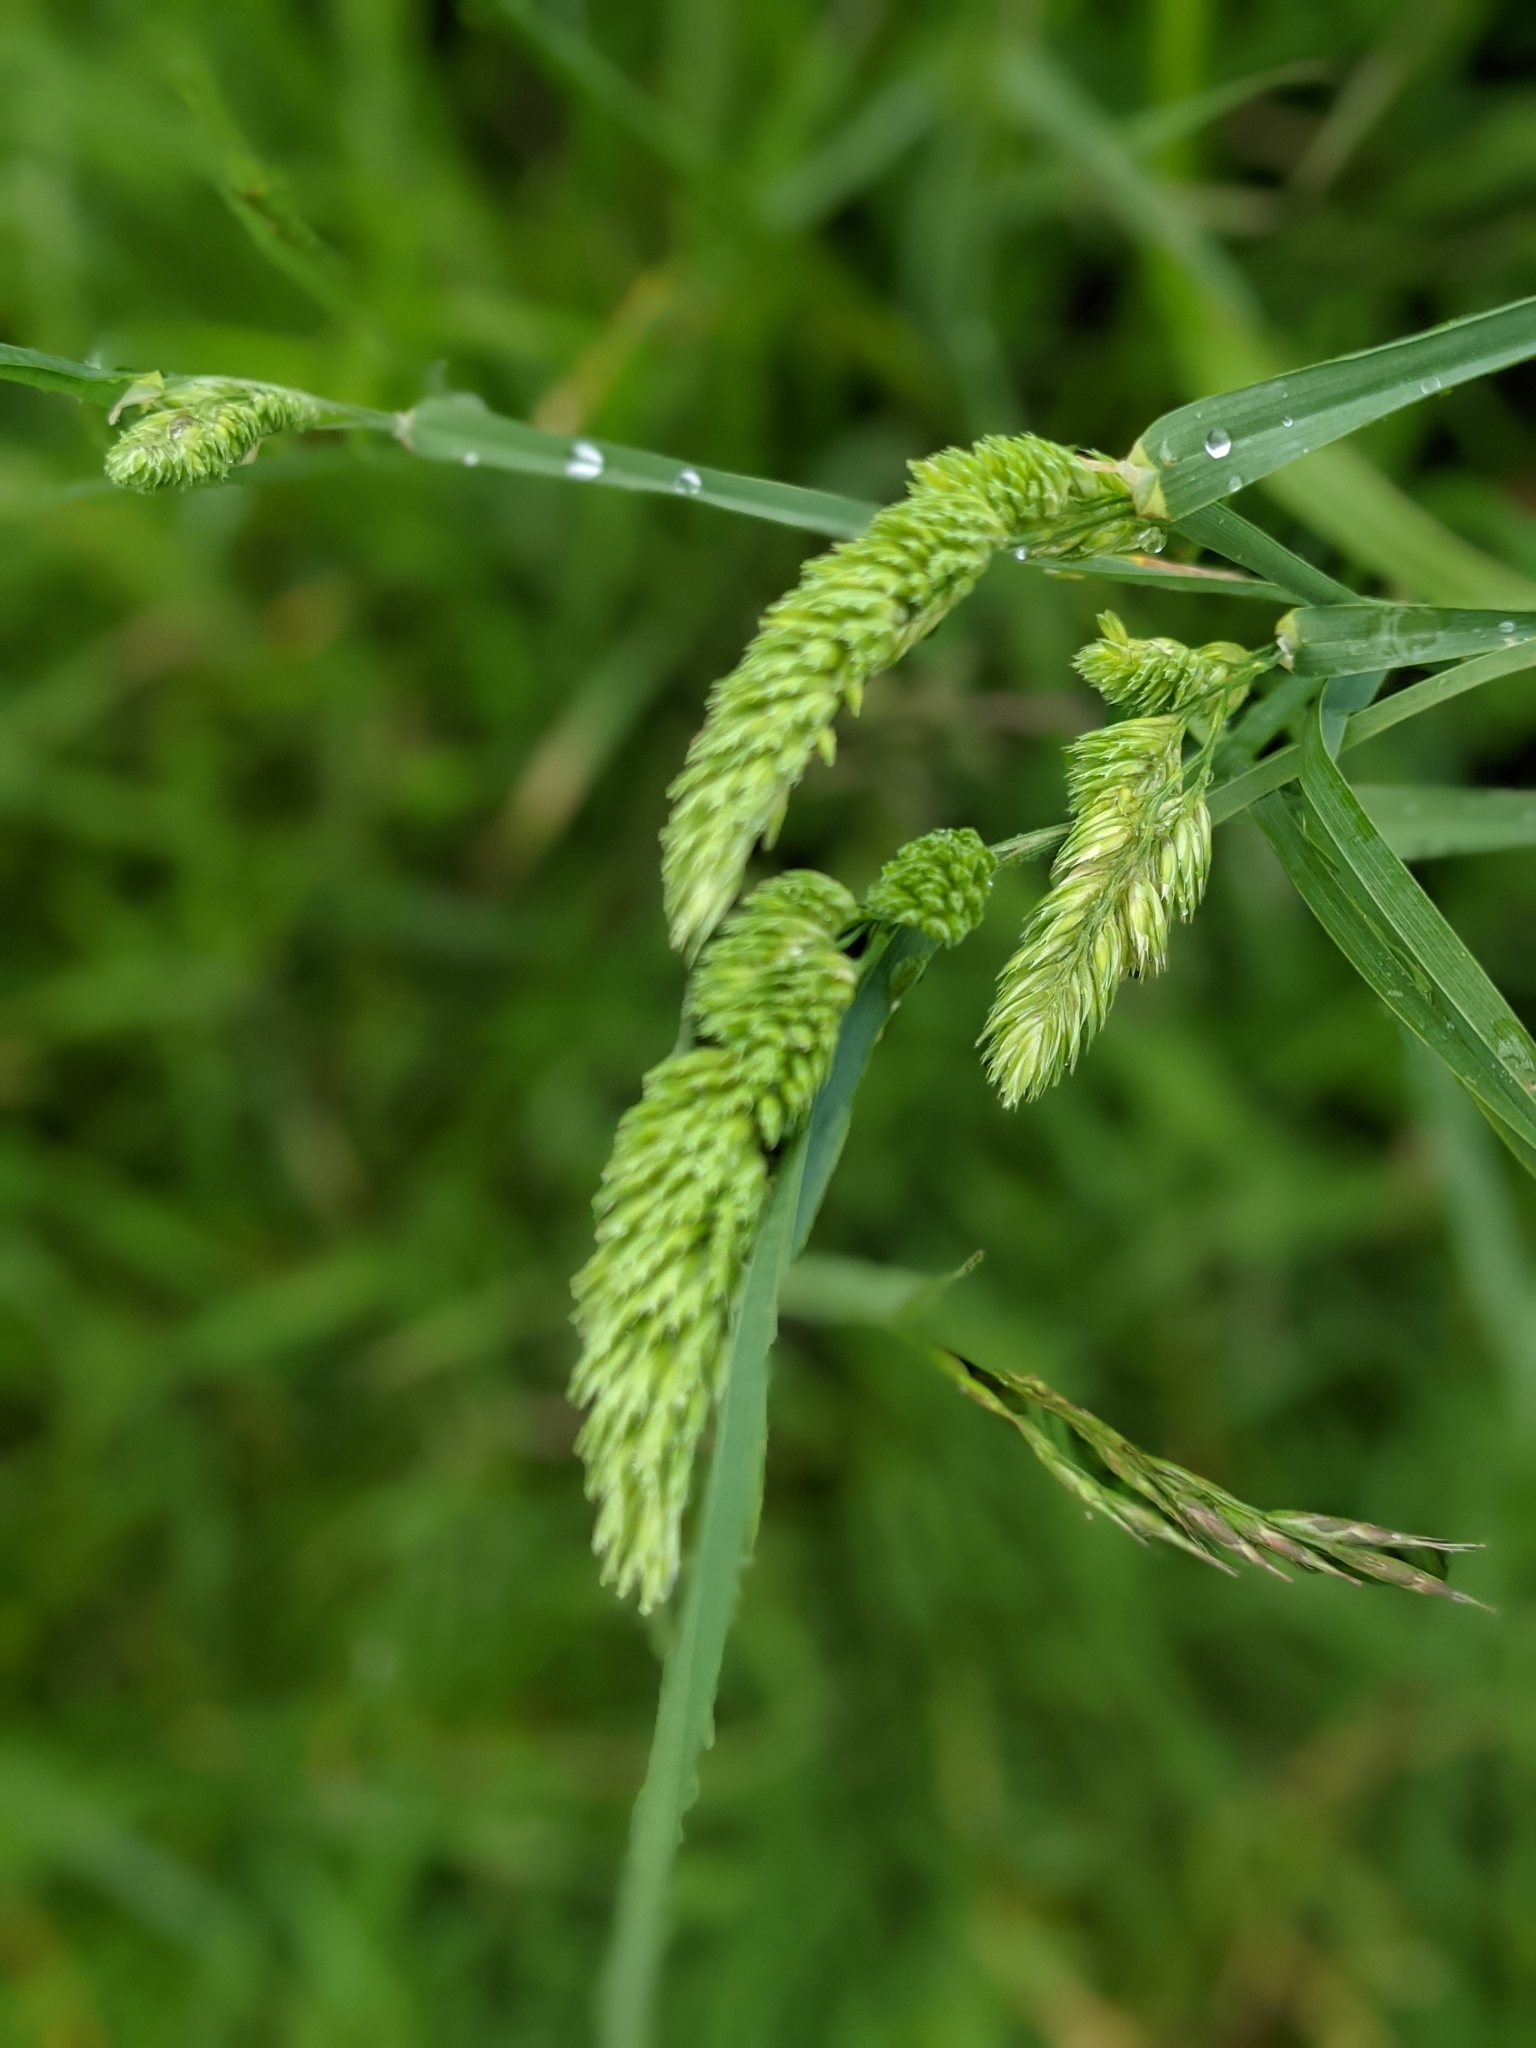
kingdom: Plantae
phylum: Tracheophyta
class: Liliopsida
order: Poales
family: Poaceae
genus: Dactylis
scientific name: Dactylis glomerata
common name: Orchardgrass
